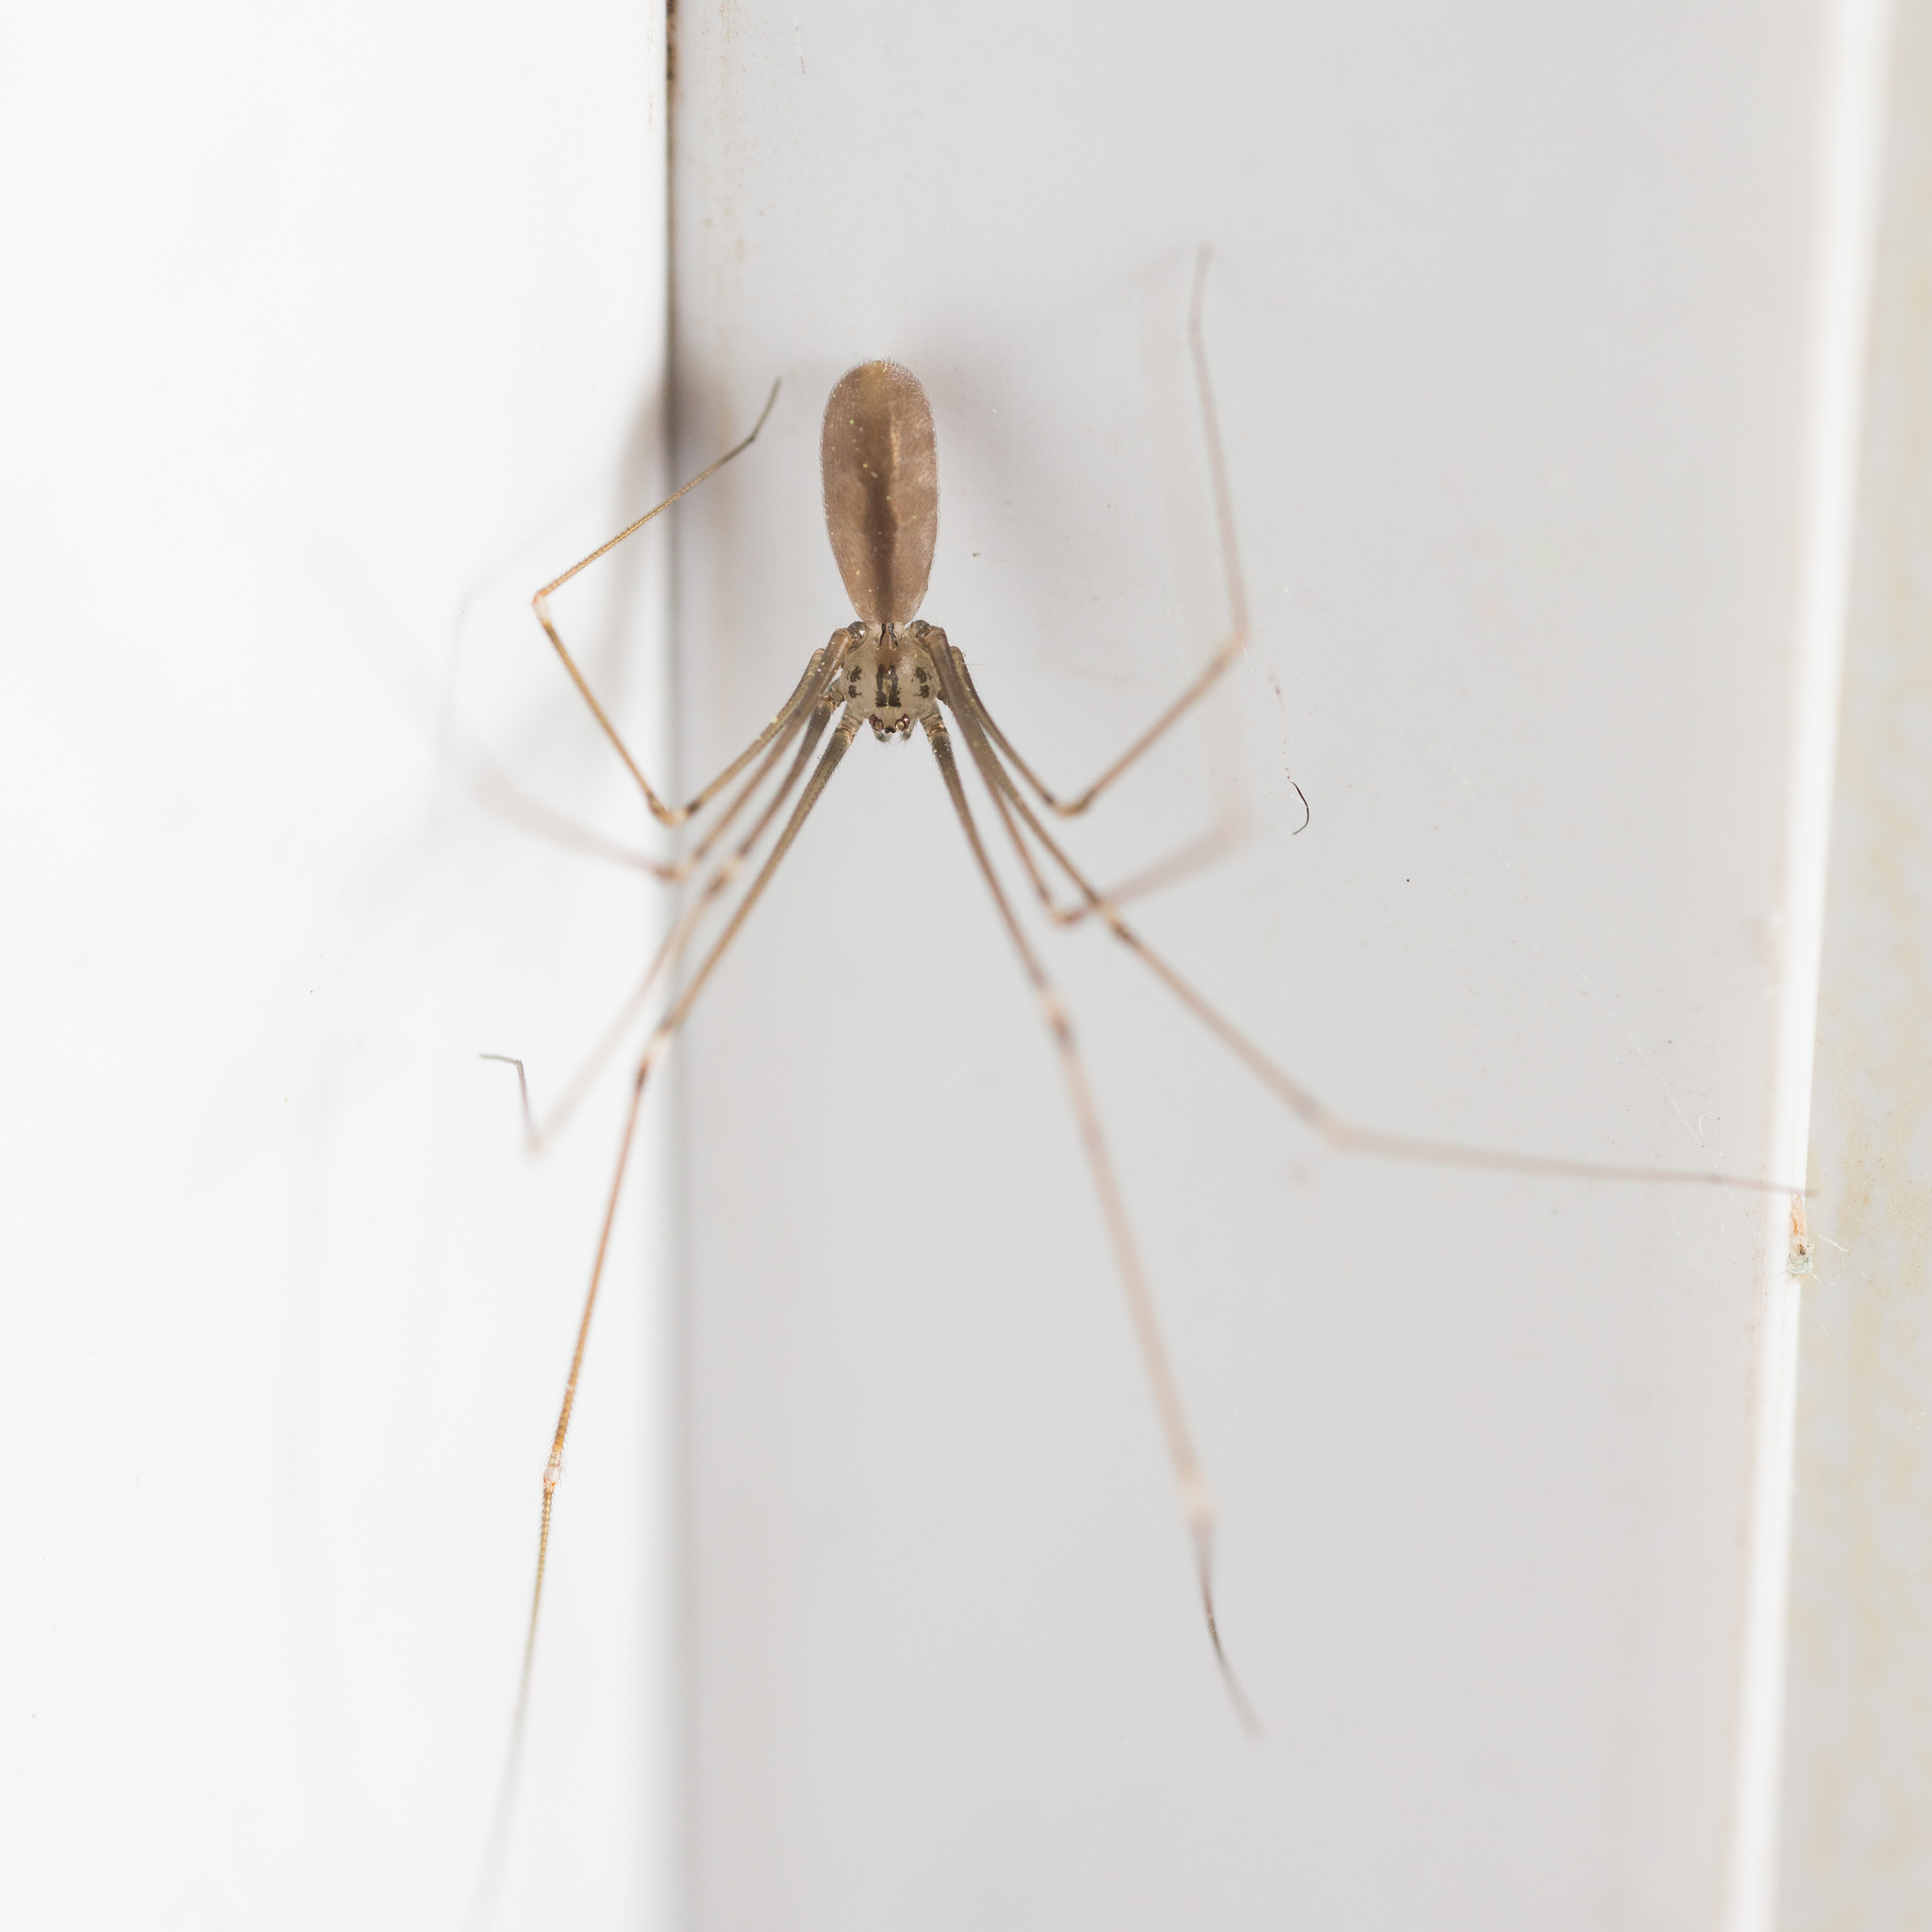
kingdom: Animalia
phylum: Arthropoda
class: Arachnida
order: Araneae
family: Pholcidae
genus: Pholcus
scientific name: Pholcus opilionoides
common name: Daddylongleg spider
